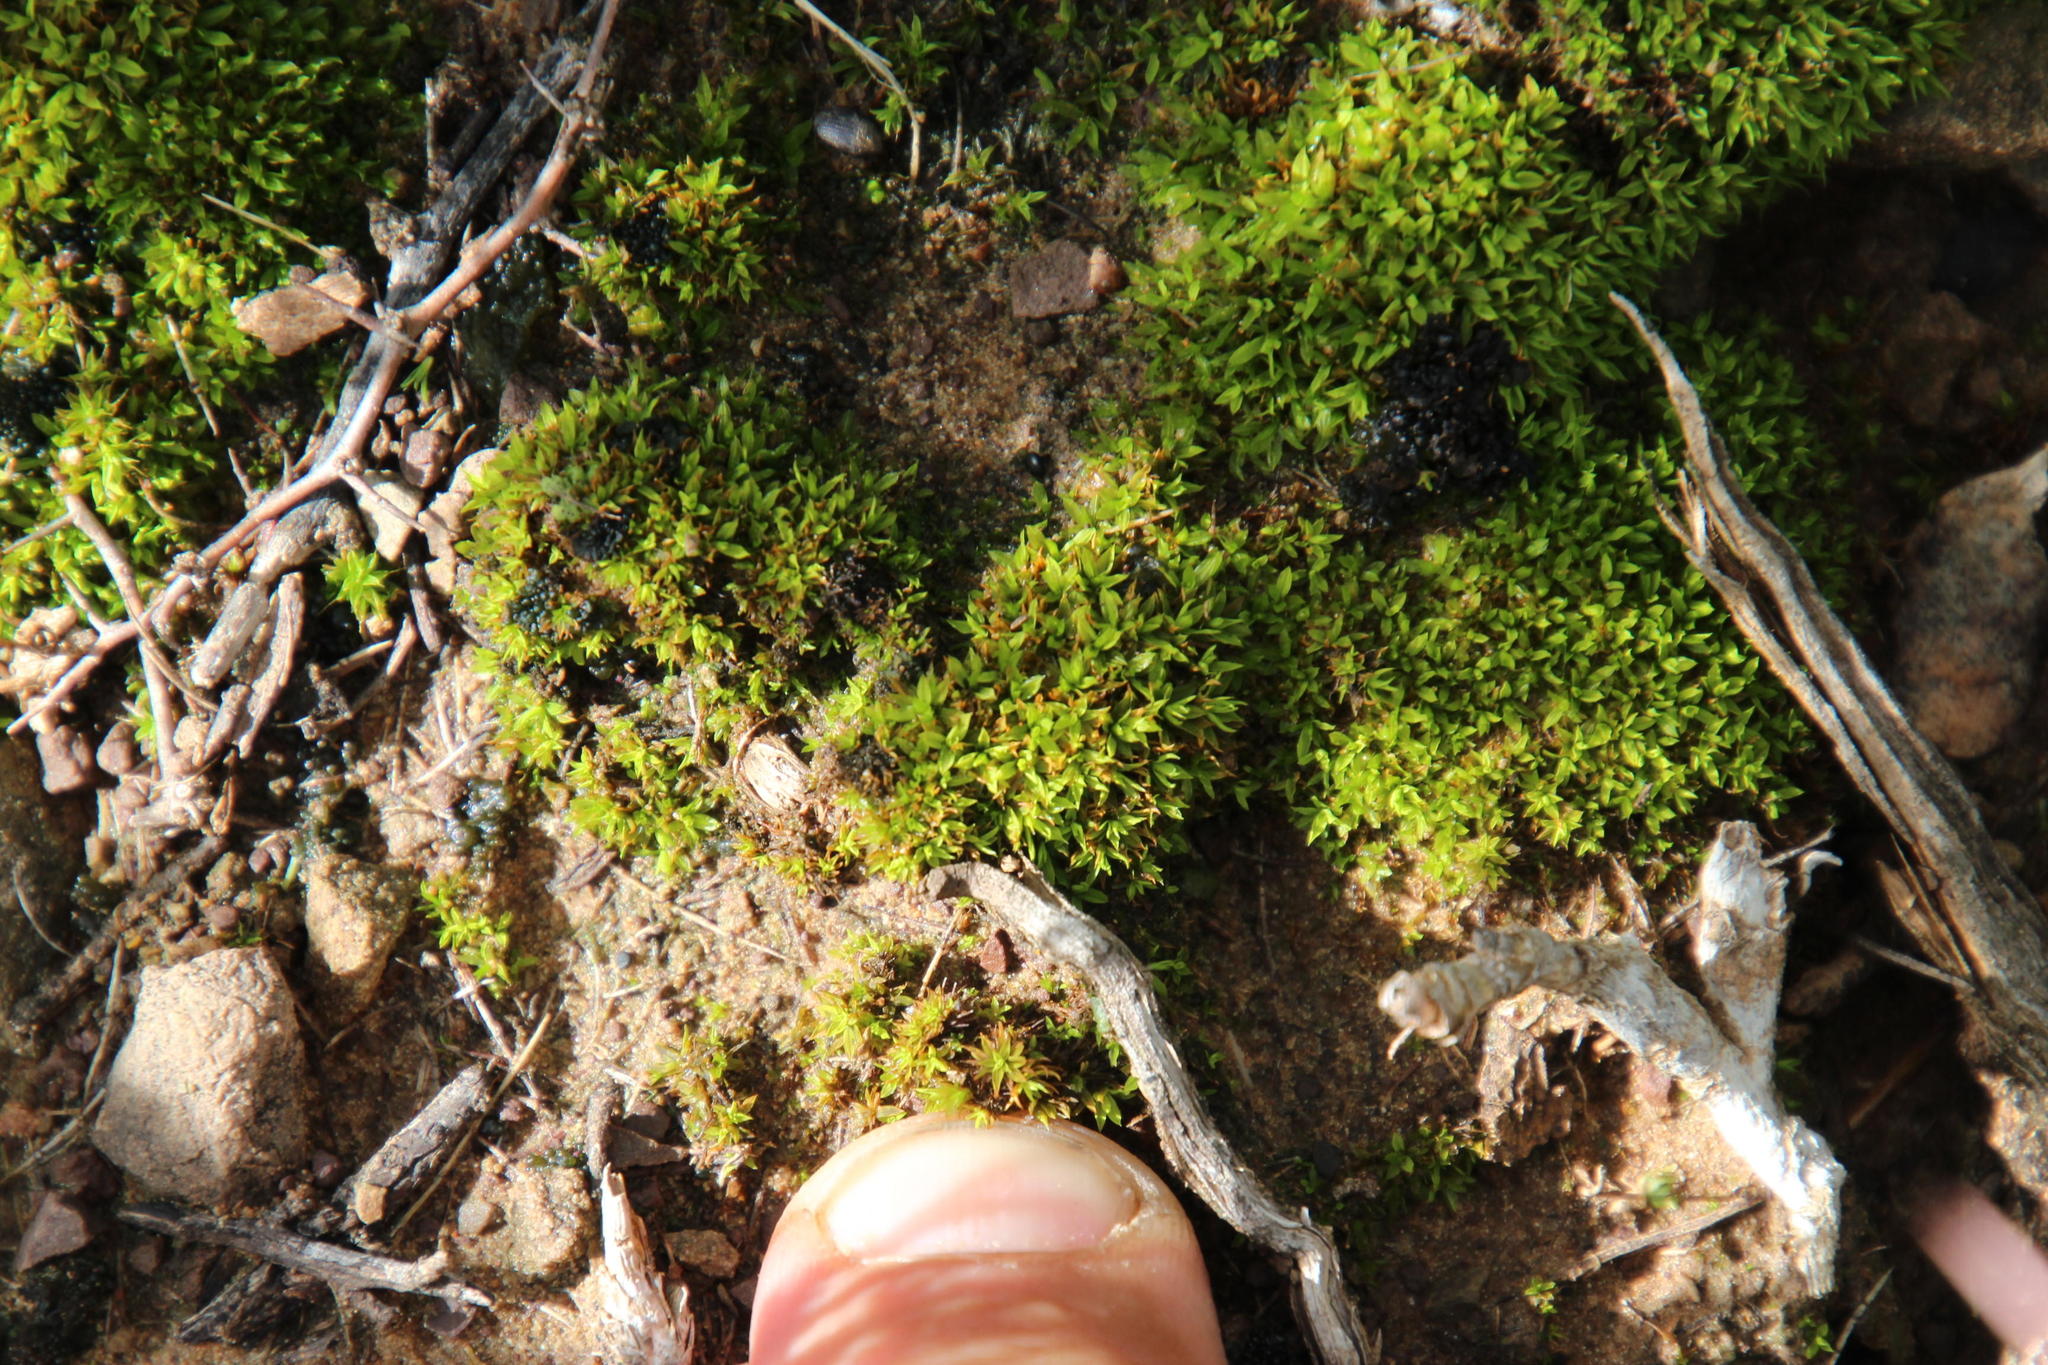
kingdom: Plantae
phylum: Bryophyta
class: Bryopsida
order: Pottiales
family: Pottiaceae
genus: Trichostomum
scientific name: Trichostomum brachydontium
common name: Variable crisp-moss
